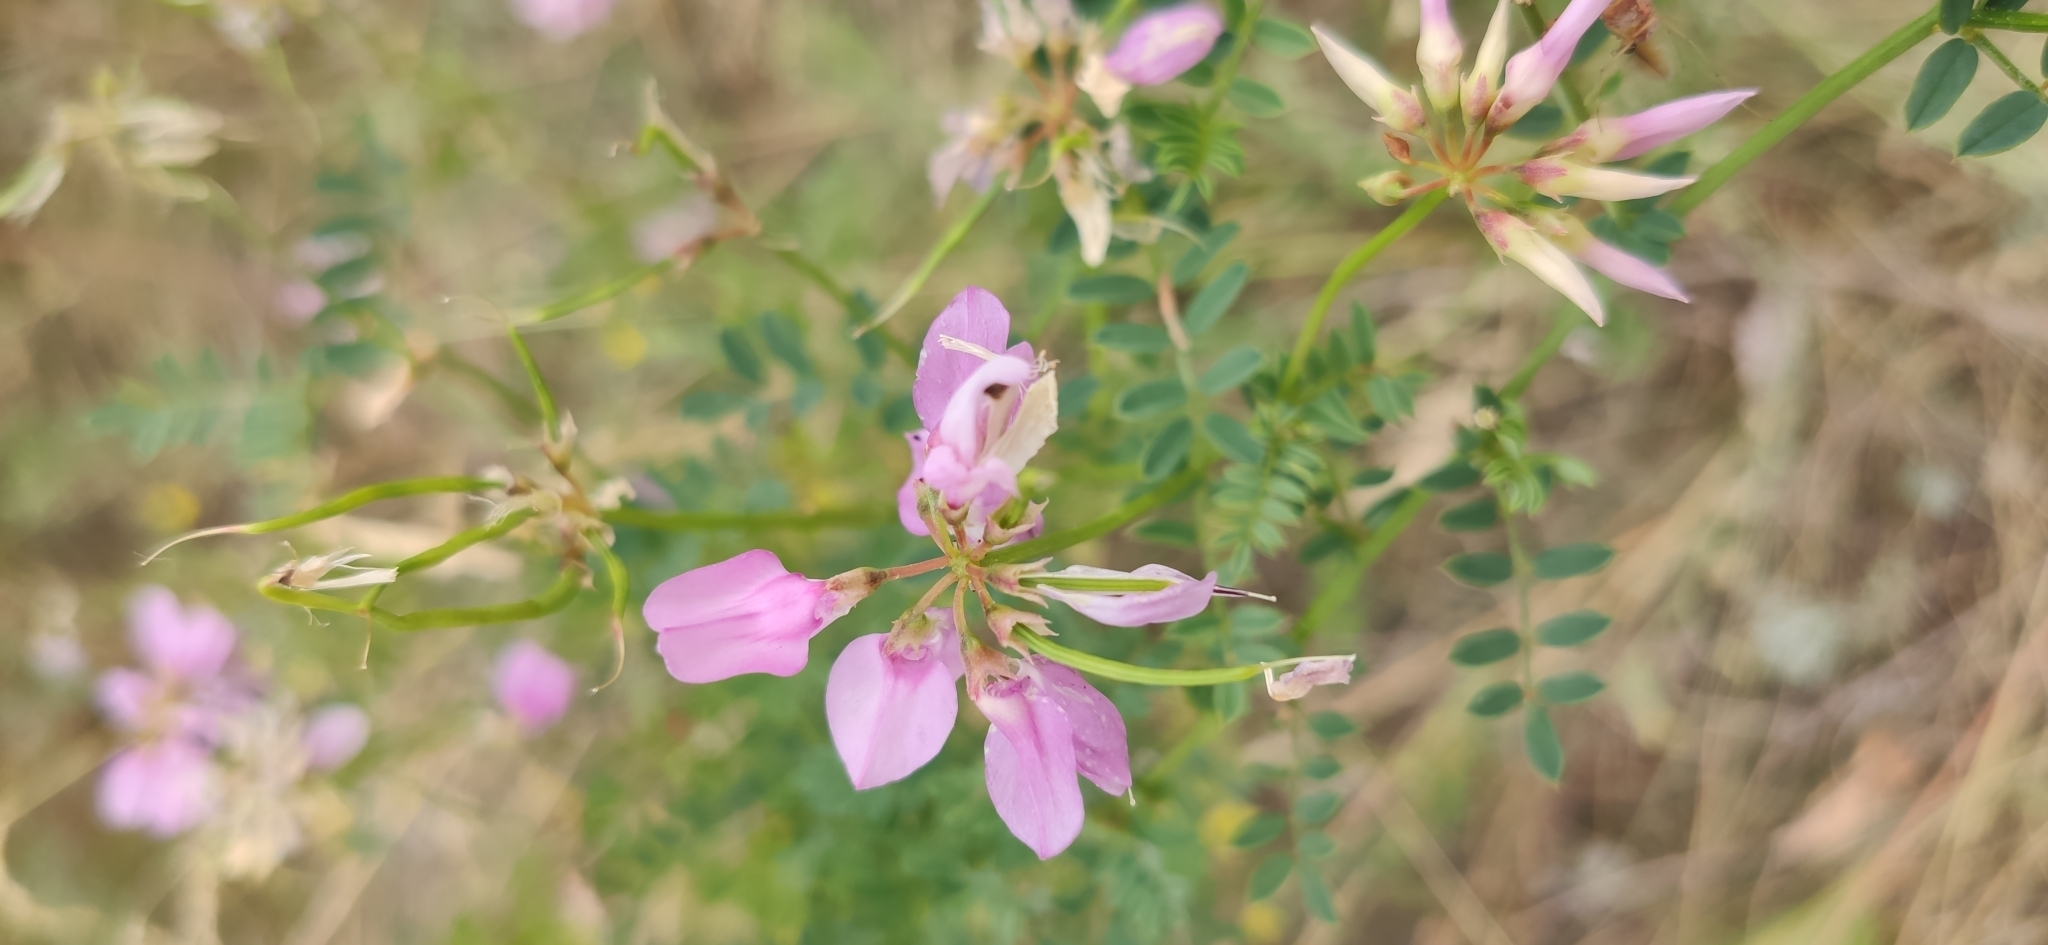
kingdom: Plantae
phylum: Tracheophyta
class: Magnoliopsida
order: Fabales
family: Fabaceae
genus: Coronilla
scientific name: Coronilla varia
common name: Crownvetch
